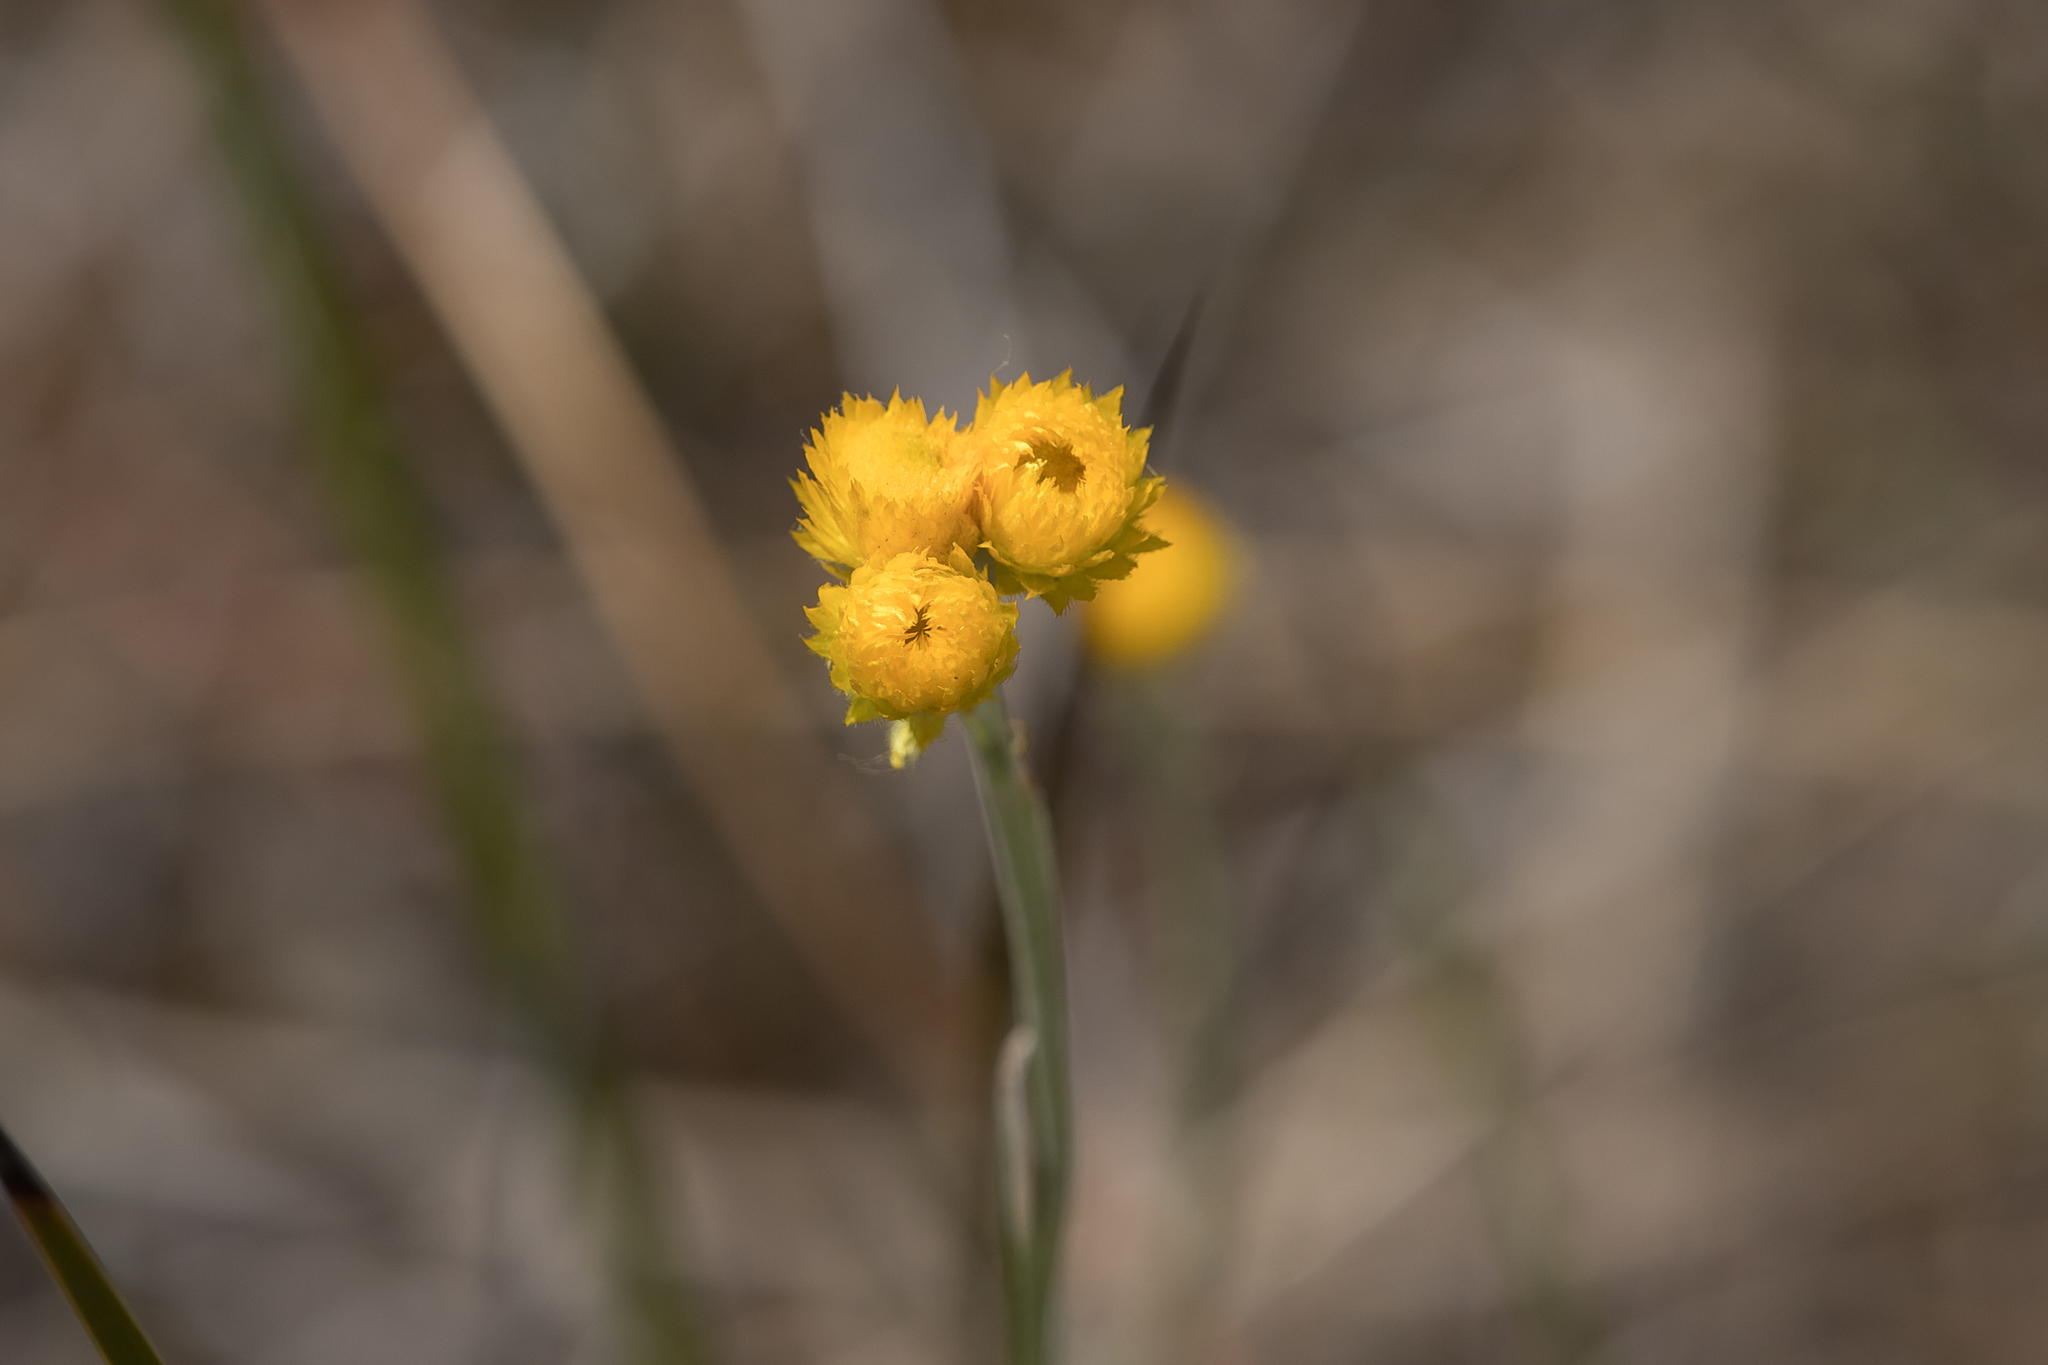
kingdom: Plantae
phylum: Tracheophyta
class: Magnoliopsida
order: Asterales
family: Asteraceae
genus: Chrysocephalum
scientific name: Chrysocephalum apiculatum
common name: Common everlasting
